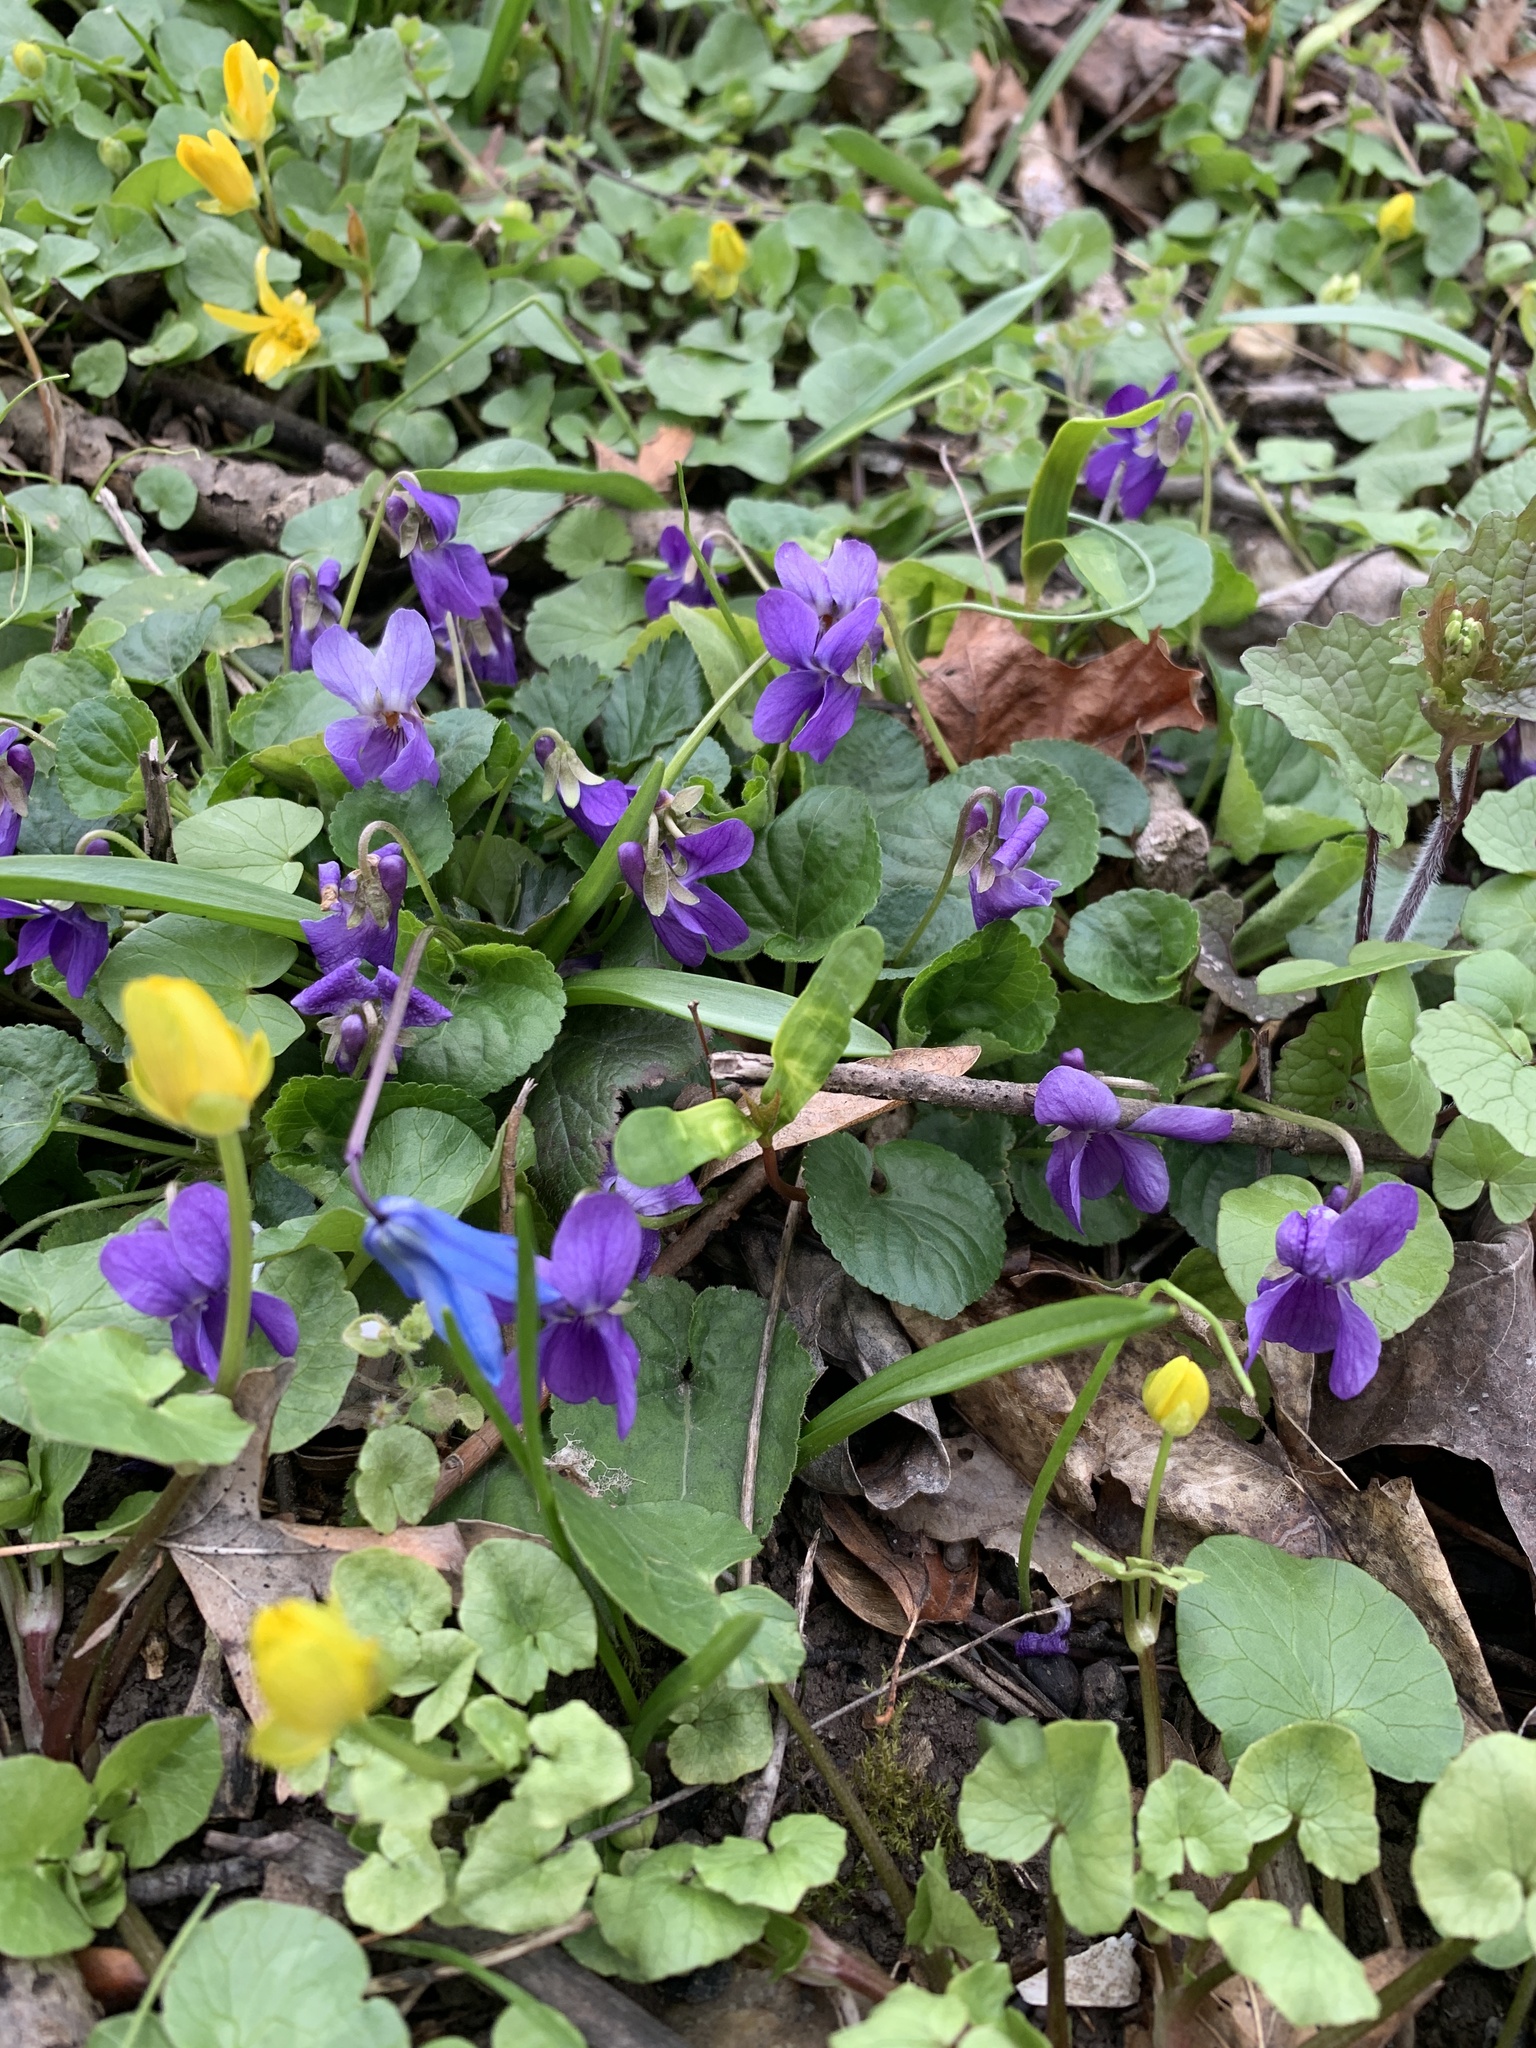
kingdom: Plantae
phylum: Tracheophyta
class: Magnoliopsida
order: Malpighiales
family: Violaceae
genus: Viola
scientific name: Viola odorata
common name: Sweet violet
